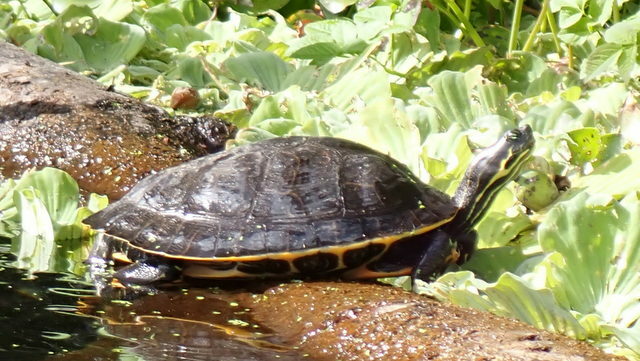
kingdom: Animalia
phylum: Chordata
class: Testudines
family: Emydidae
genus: Pseudemys
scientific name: Pseudemys concinna
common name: Eastern river cooter
